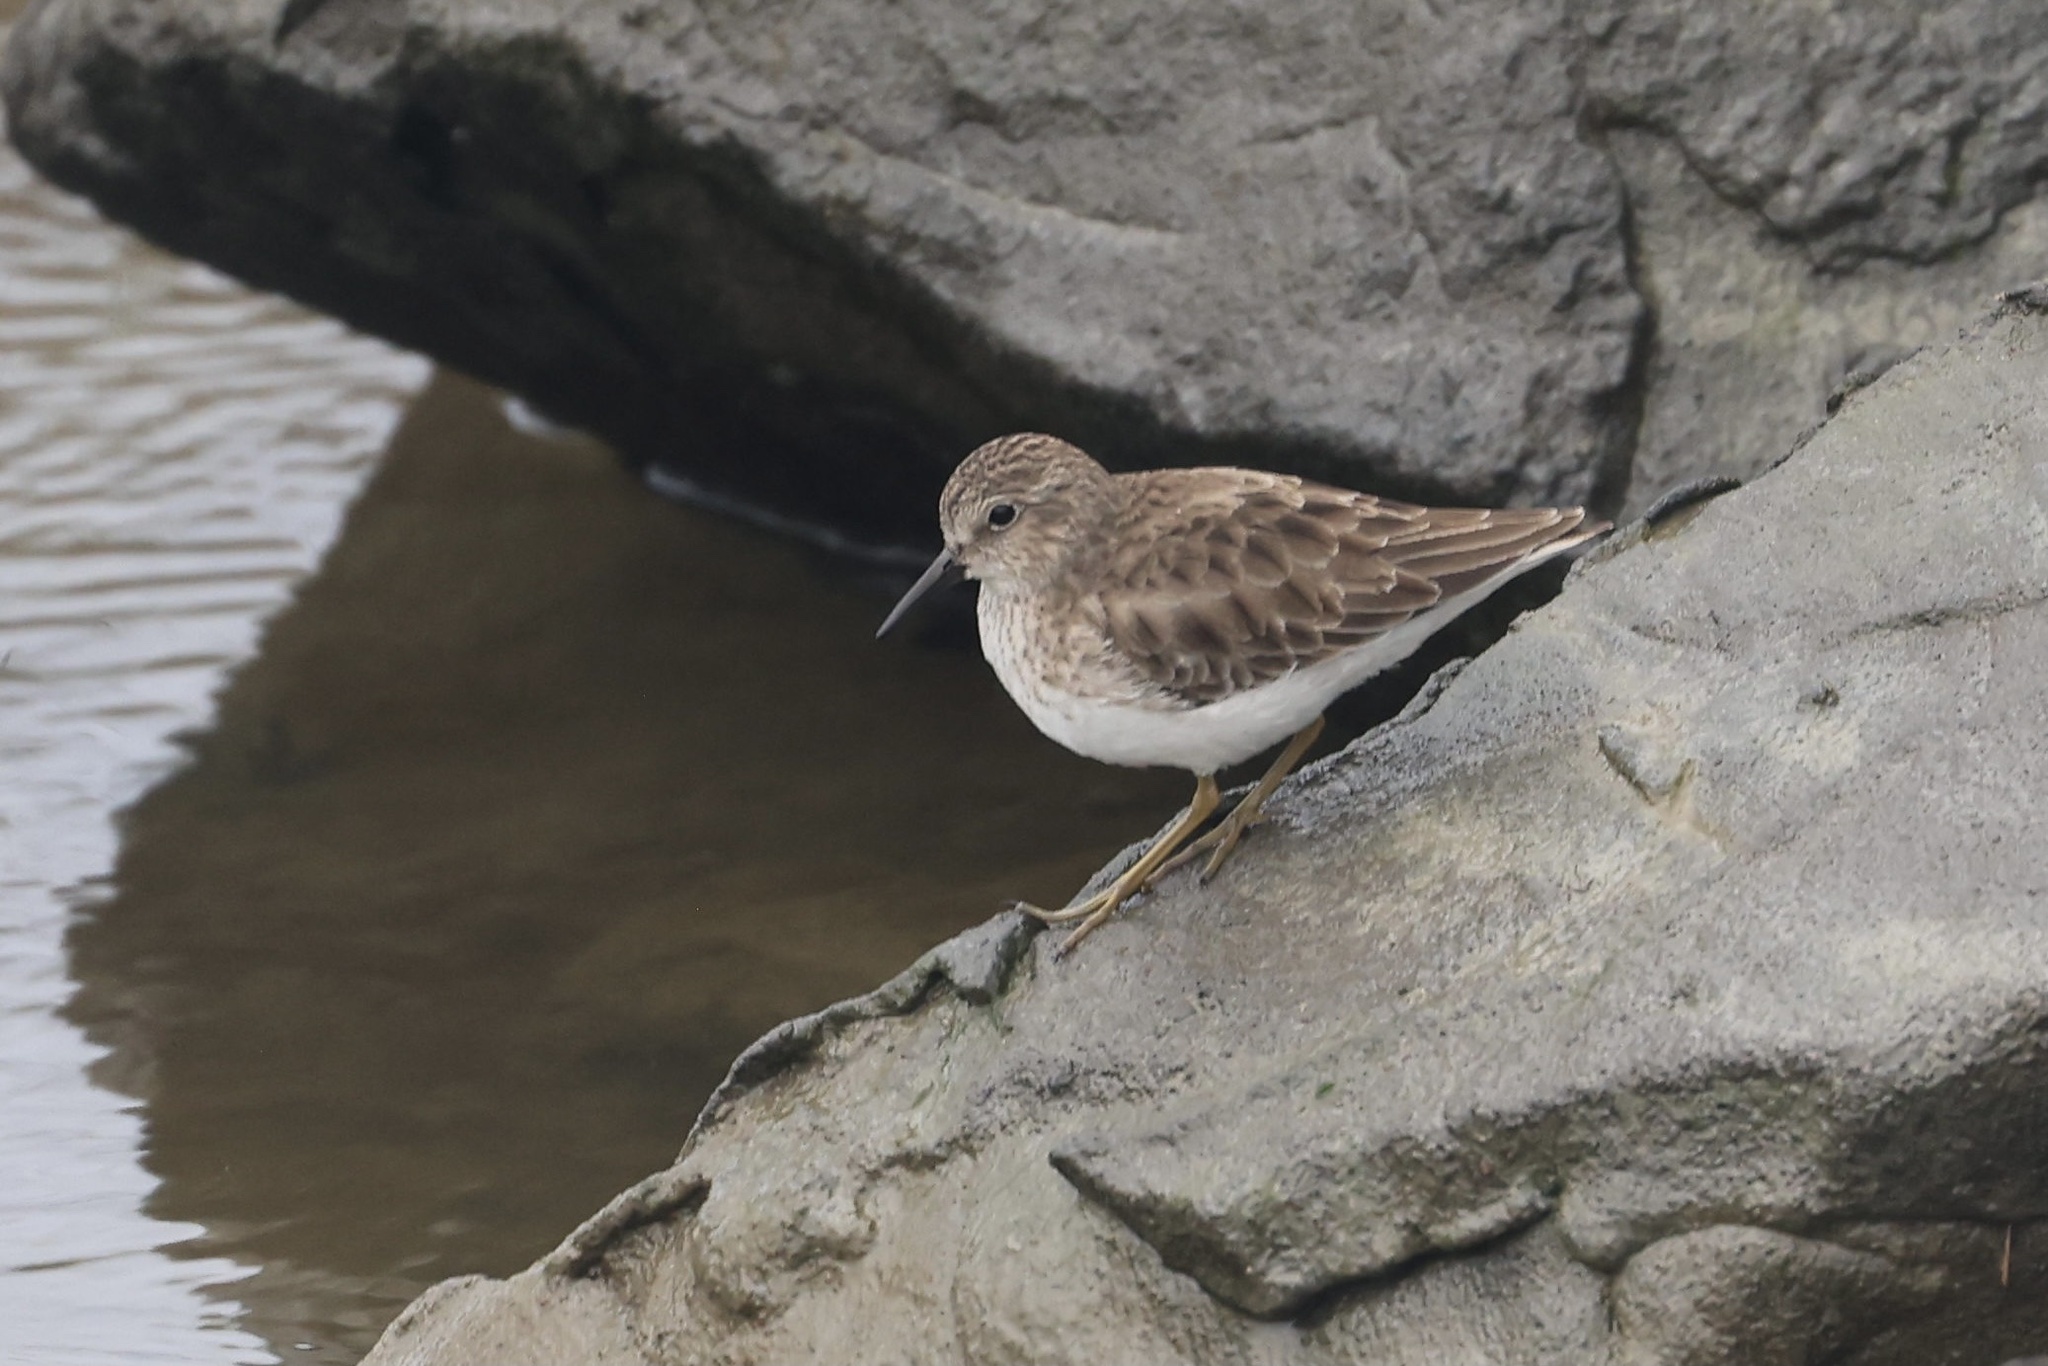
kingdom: Animalia
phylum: Chordata
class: Aves
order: Charadriiformes
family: Scolopacidae
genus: Calidris
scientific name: Calidris minutilla
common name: Least sandpiper
